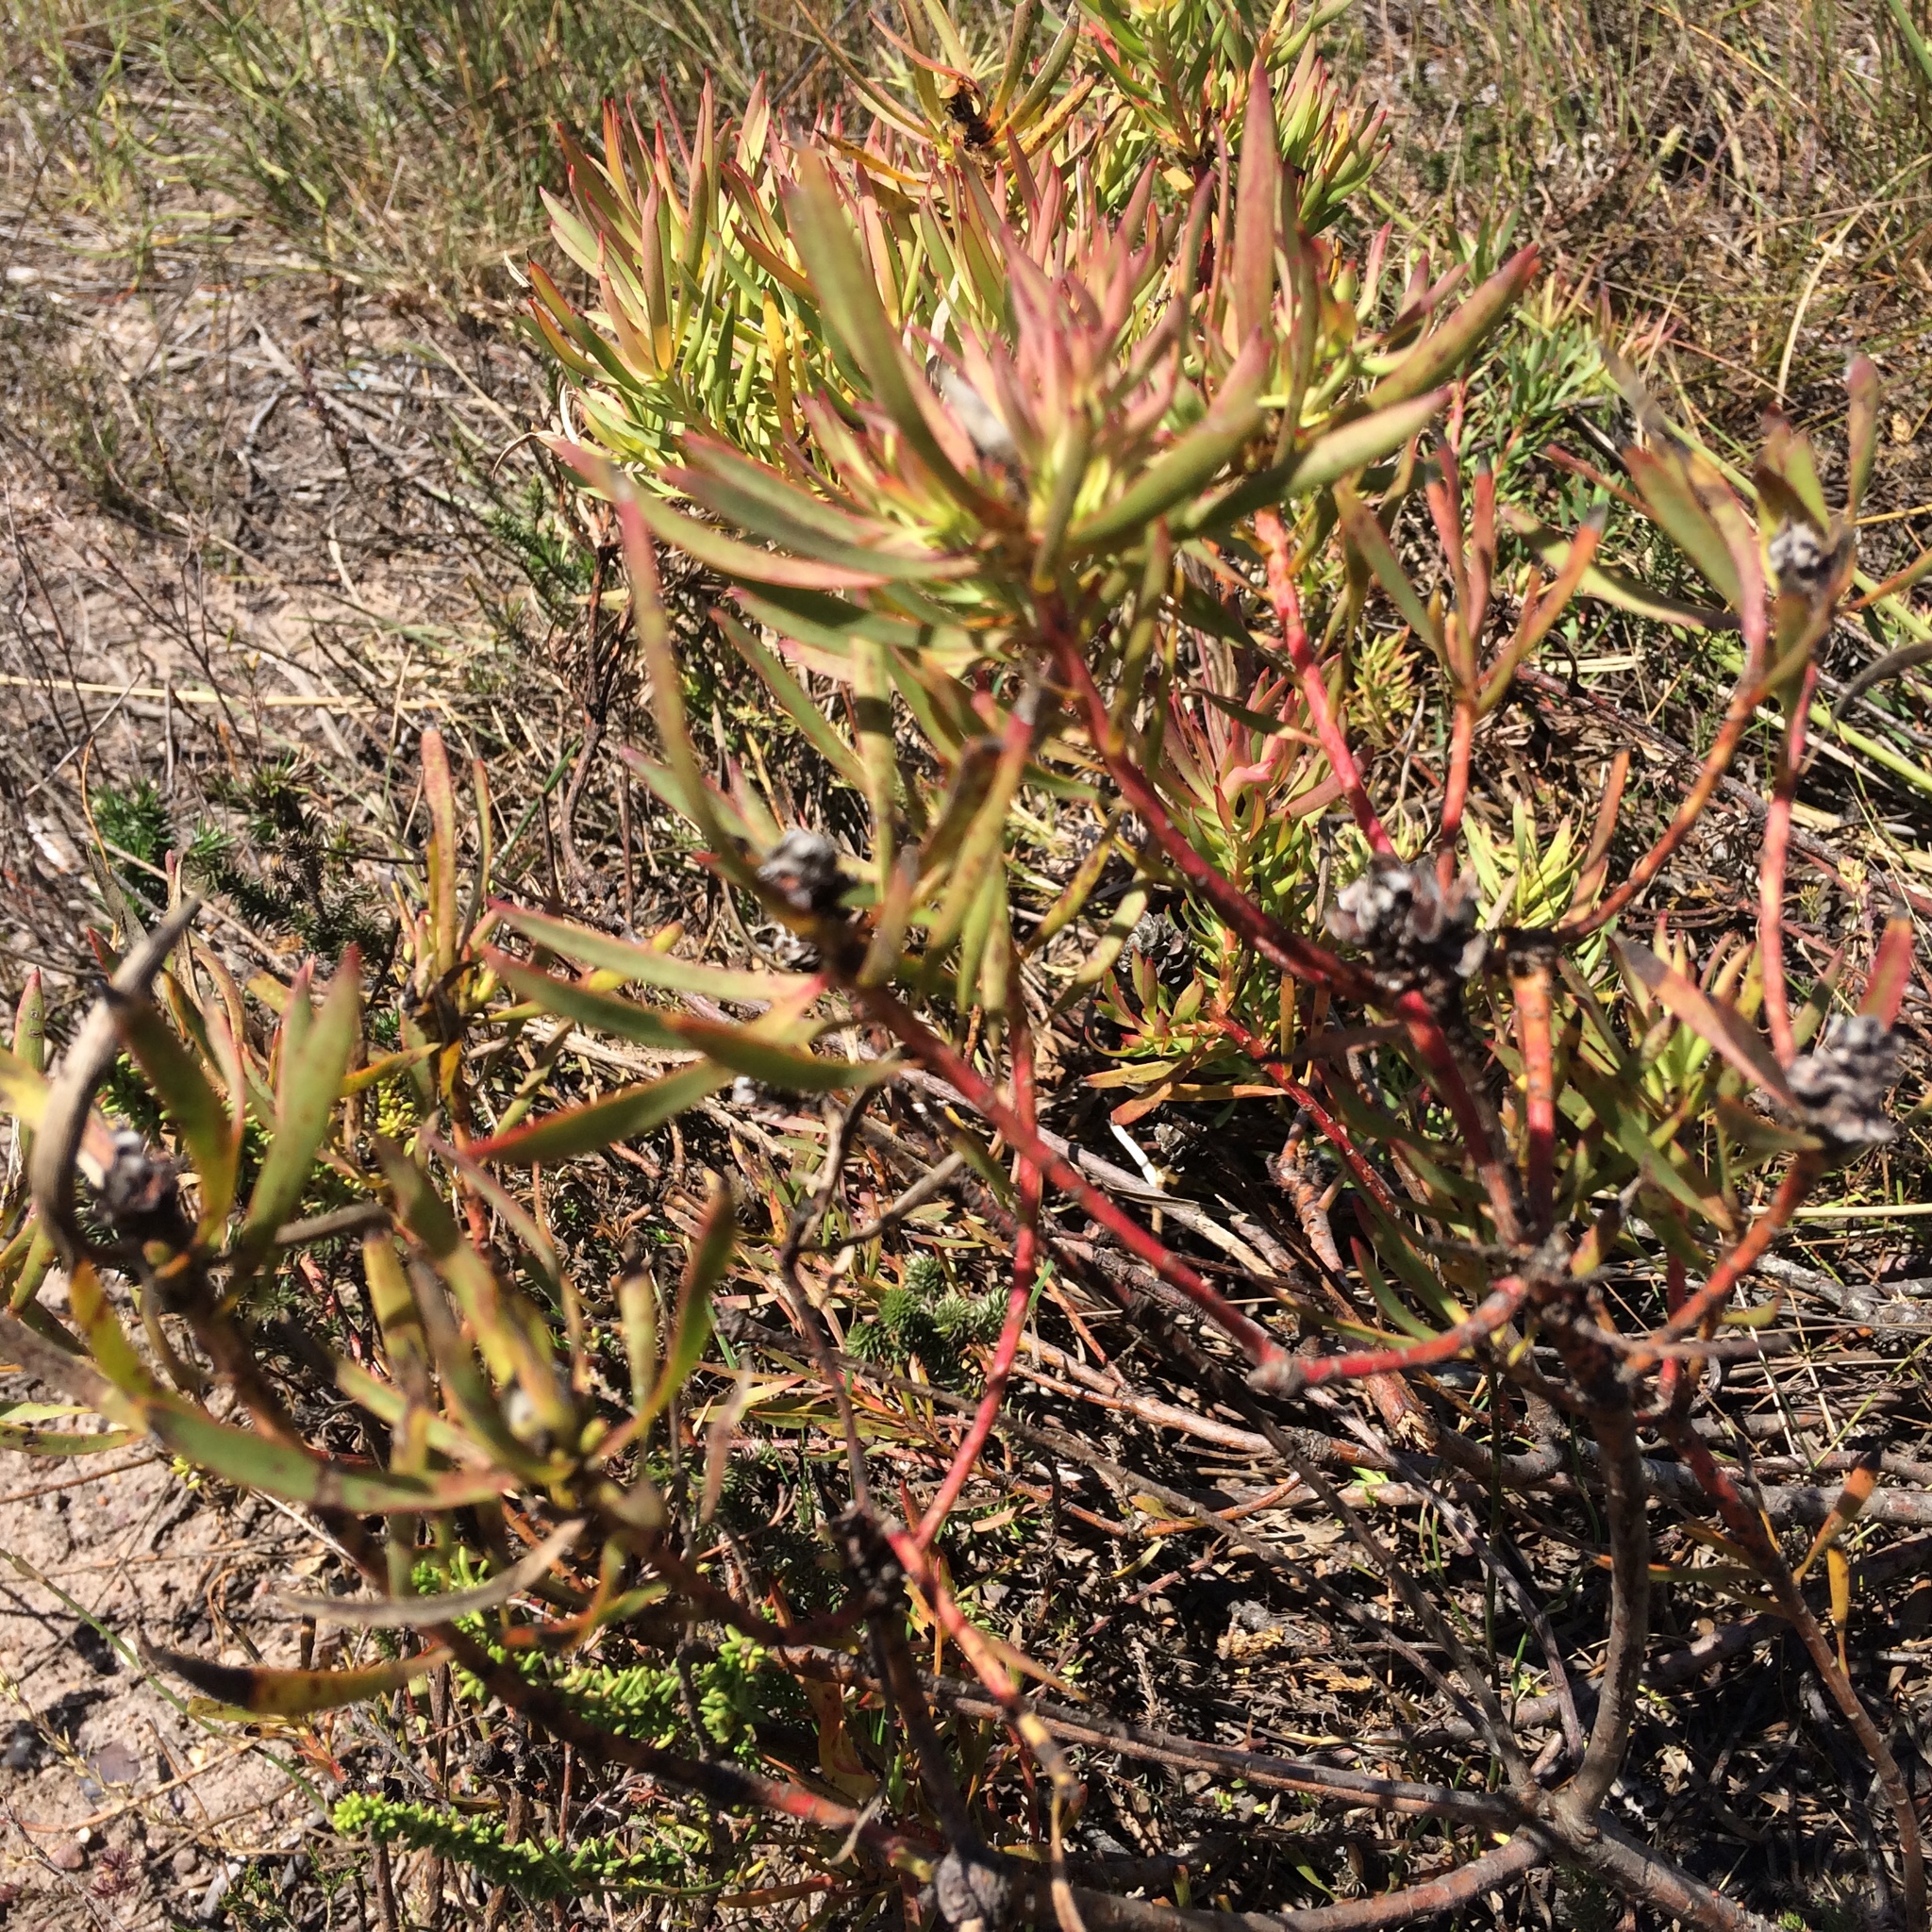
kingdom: Plantae
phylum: Tracheophyta
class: Magnoliopsida
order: Proteales
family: Proteaceae
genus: Leucadendron
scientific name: Leucadendron salignum
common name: Common sunshine conebush
